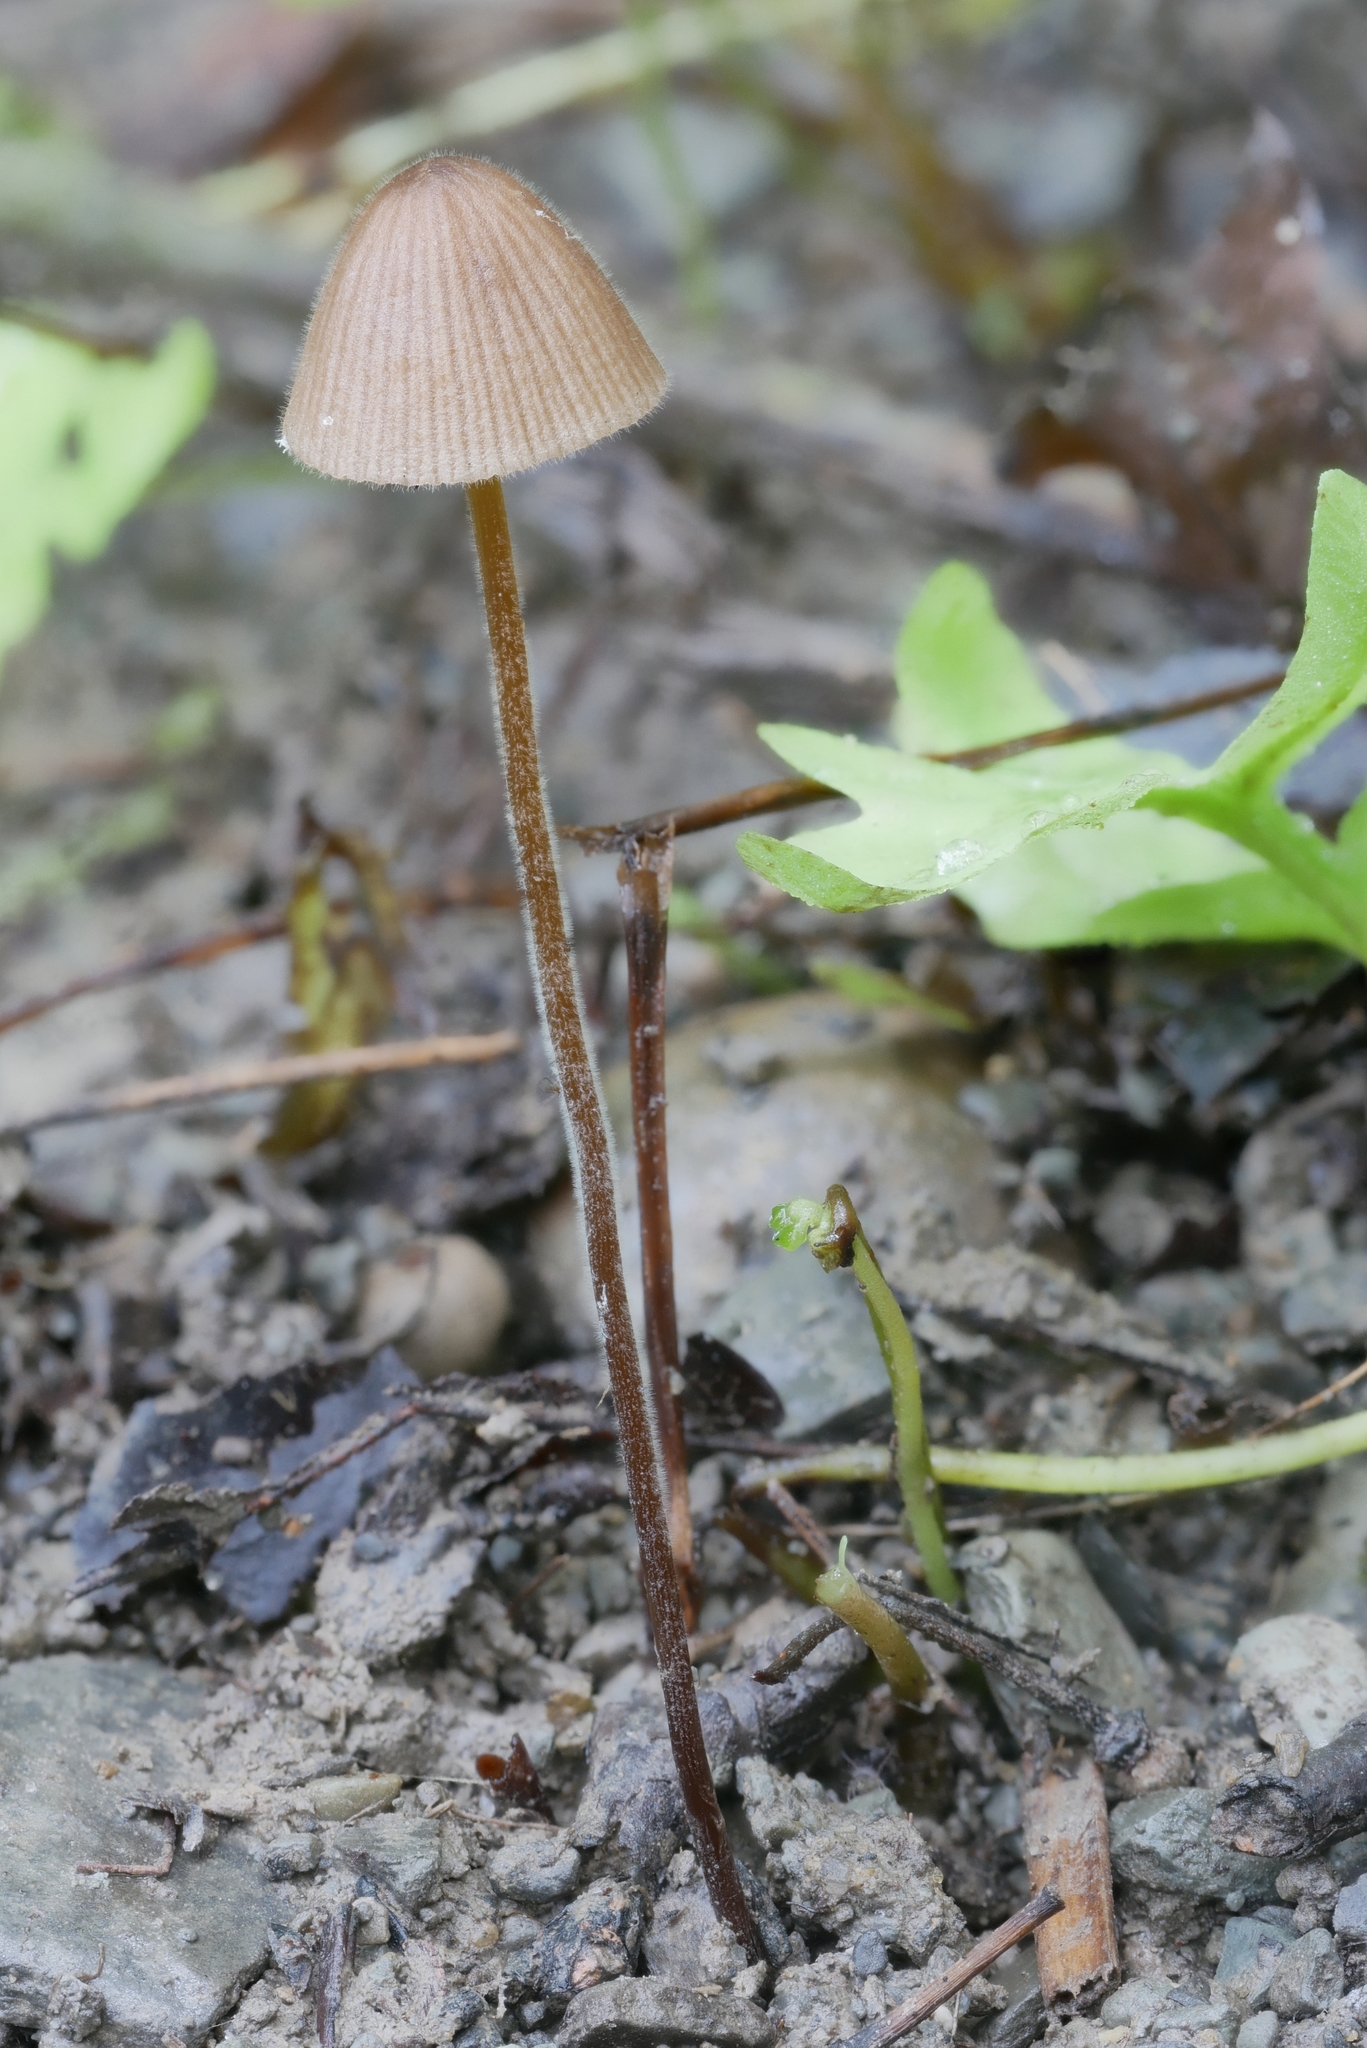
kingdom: Fungi
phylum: Basidiomycota
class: Agaricomycetes
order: Agaricales
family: Bolbitiaceae
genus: Conocybe
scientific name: Conocybe moseri
